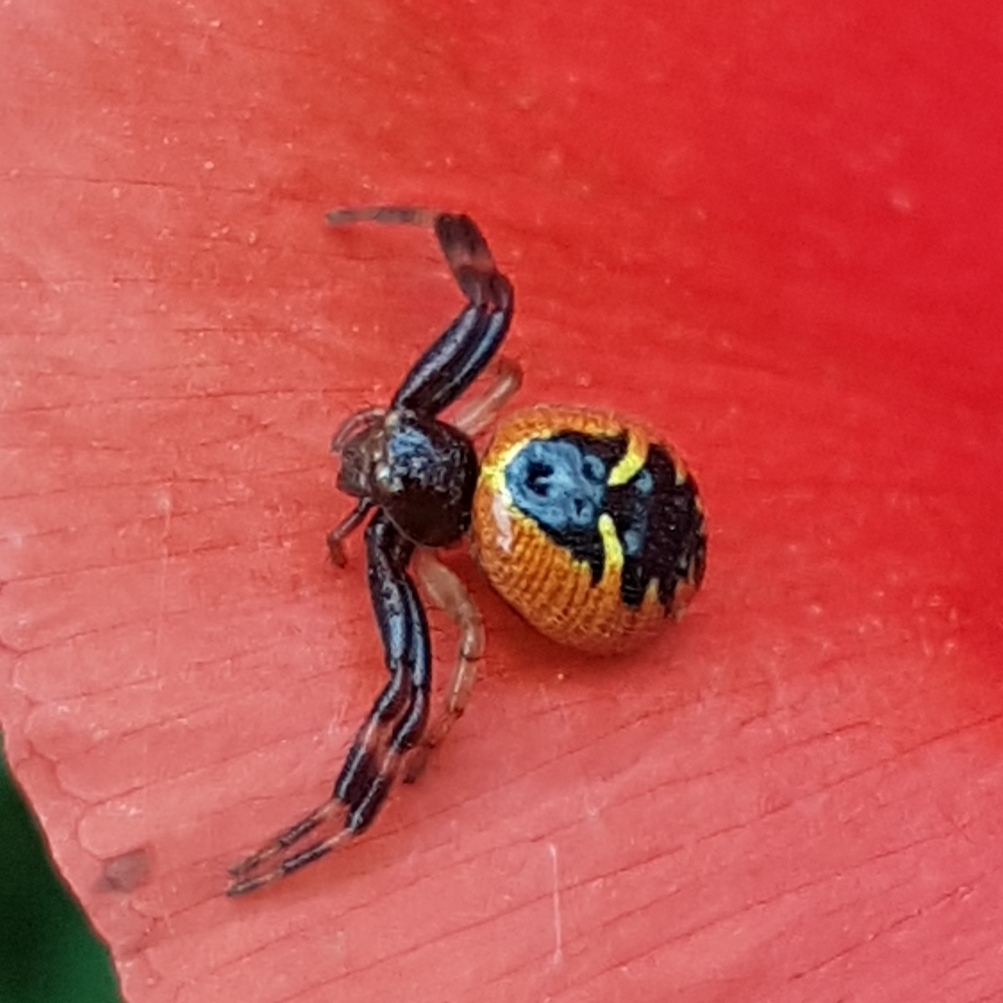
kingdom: Animalia
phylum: Arthropoda
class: Arachnida
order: Araneae
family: Thomisidae
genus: Synema
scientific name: Synema globosum
